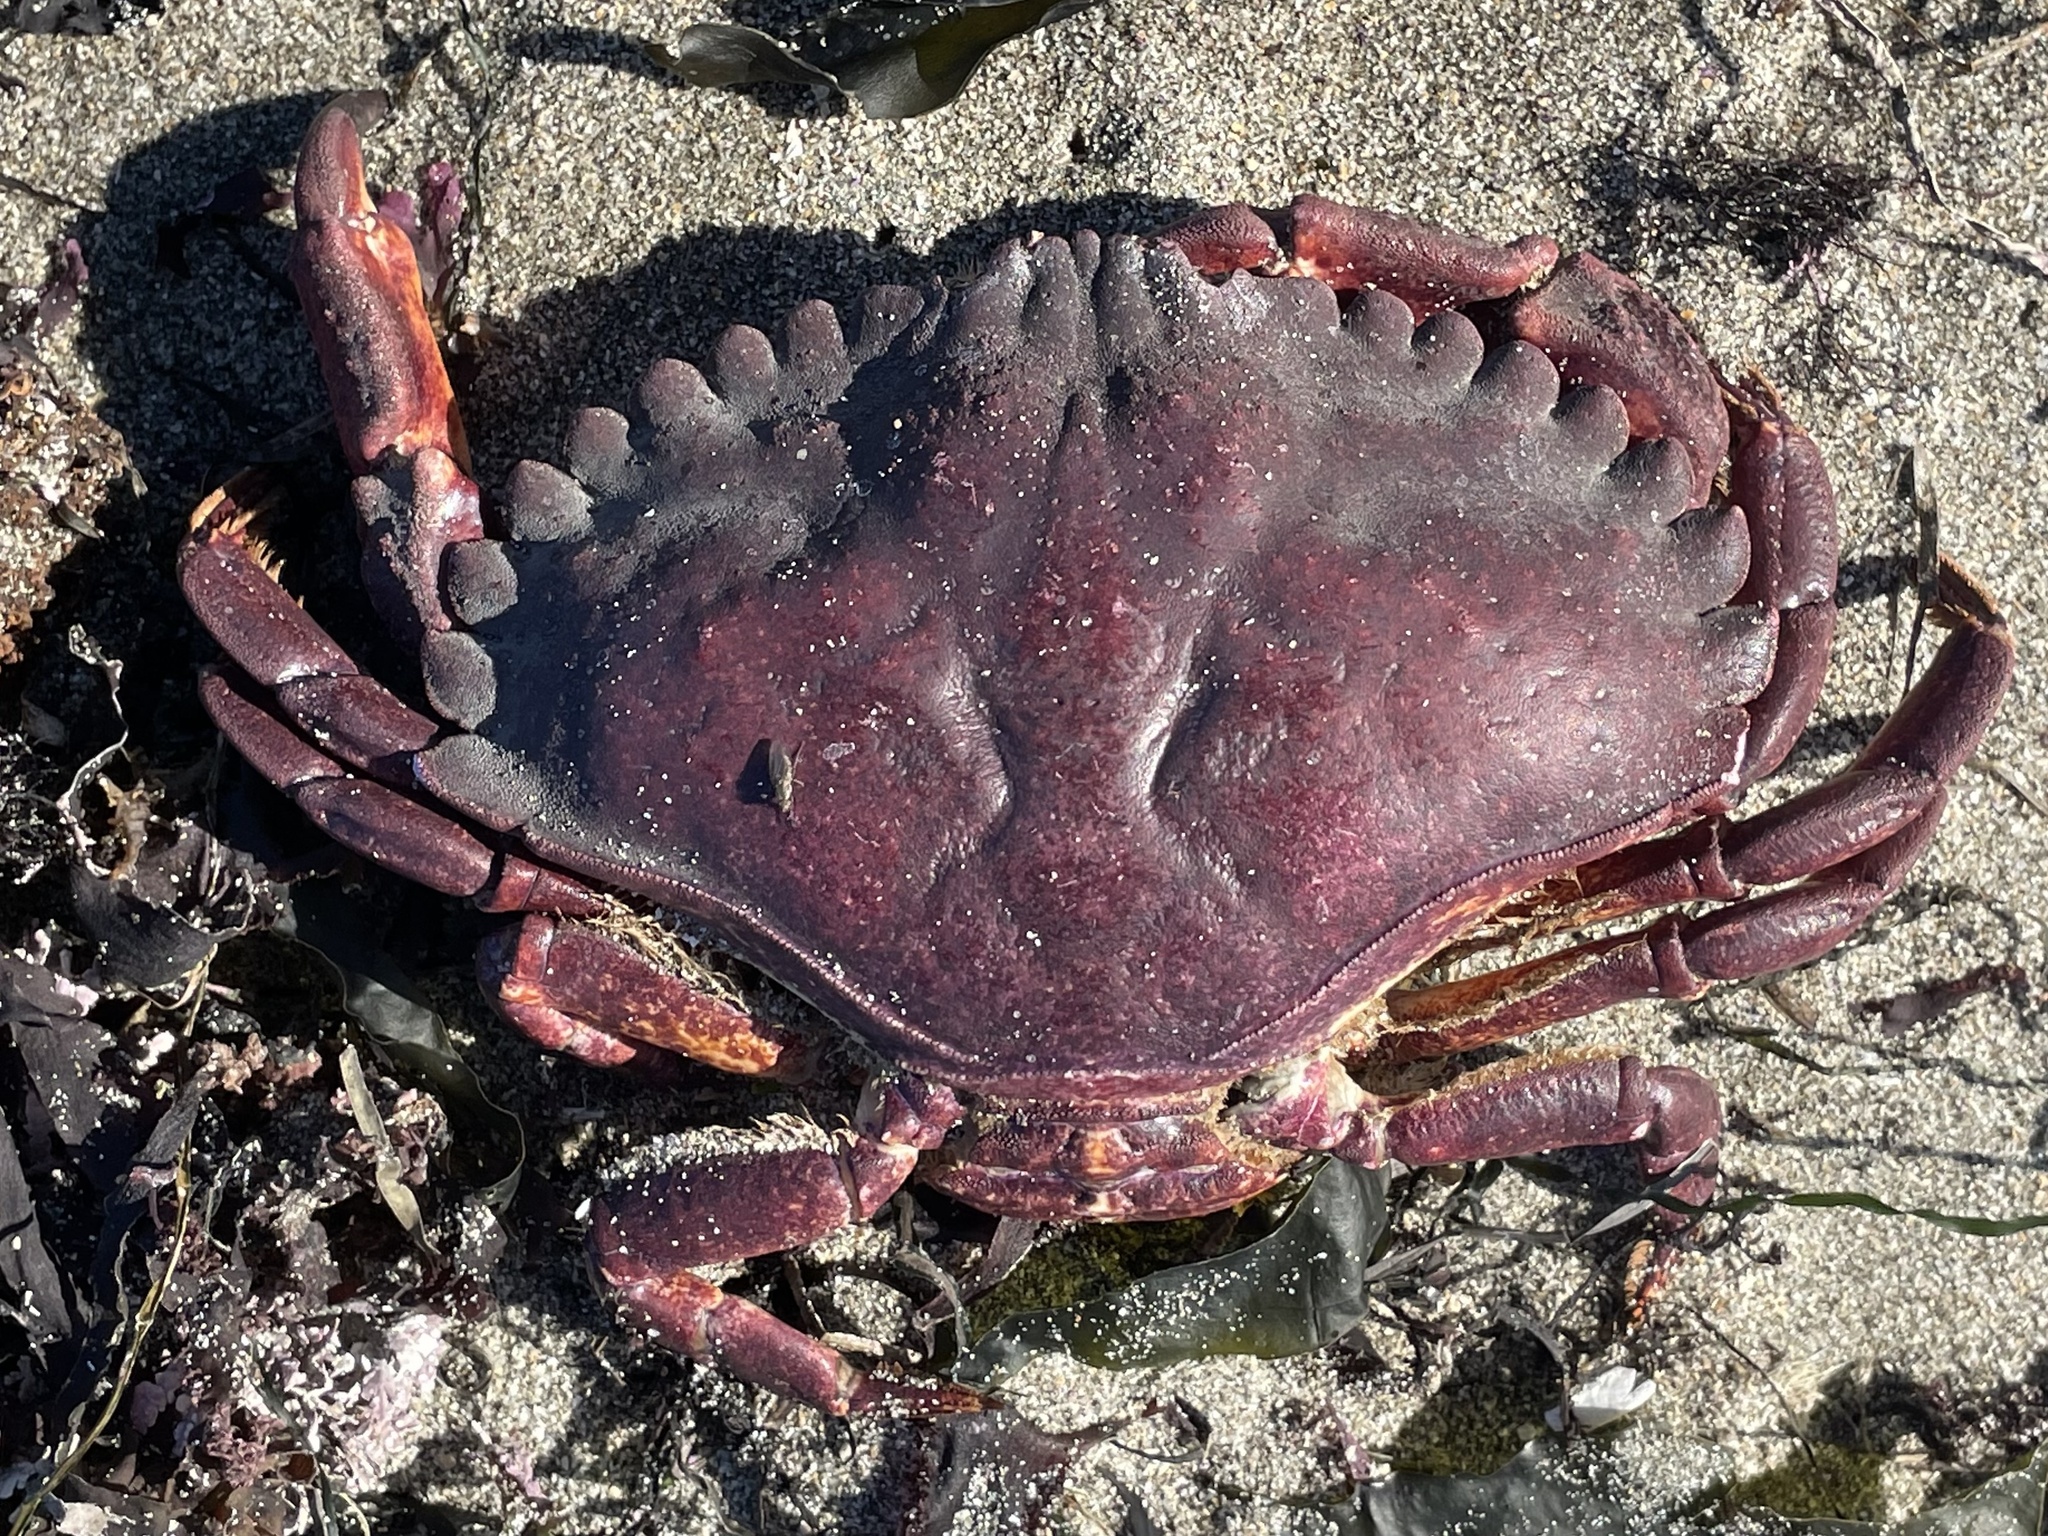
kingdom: Animalia
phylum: Arthropoda
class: Malacostraca
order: Decapoda
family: Cancridae
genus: Cancer
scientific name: Cancer productus
